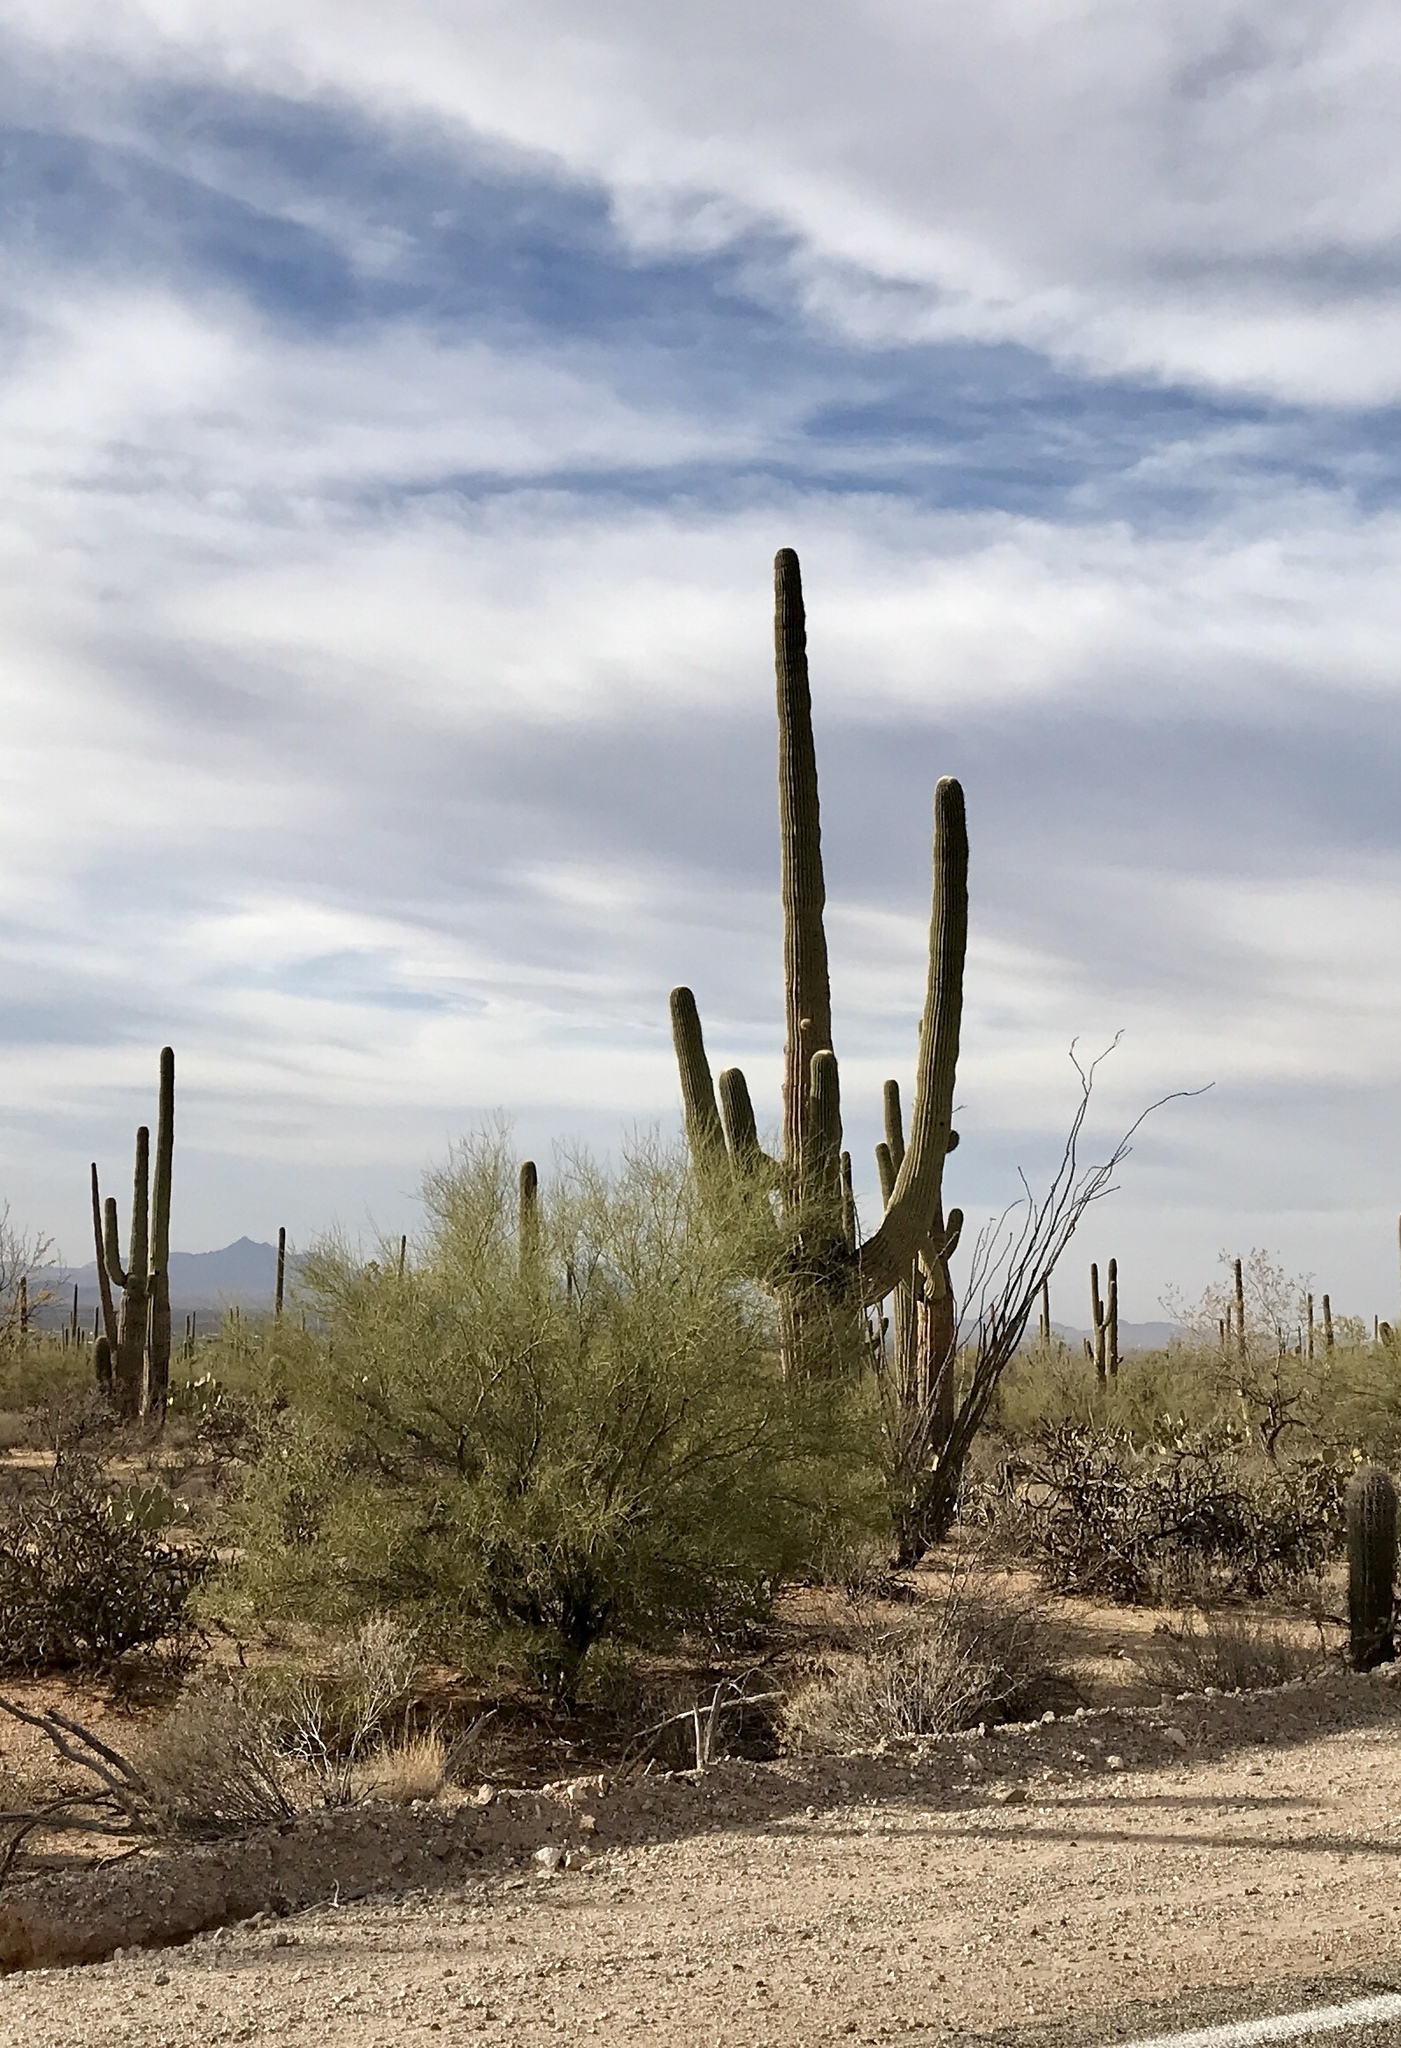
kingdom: Plantae
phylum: Tracheophyta
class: Magnoliopsida
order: Caryophyllales
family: Cactaceae
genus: Carnegiea
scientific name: Carnegiea gigantea
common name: Saguaro
